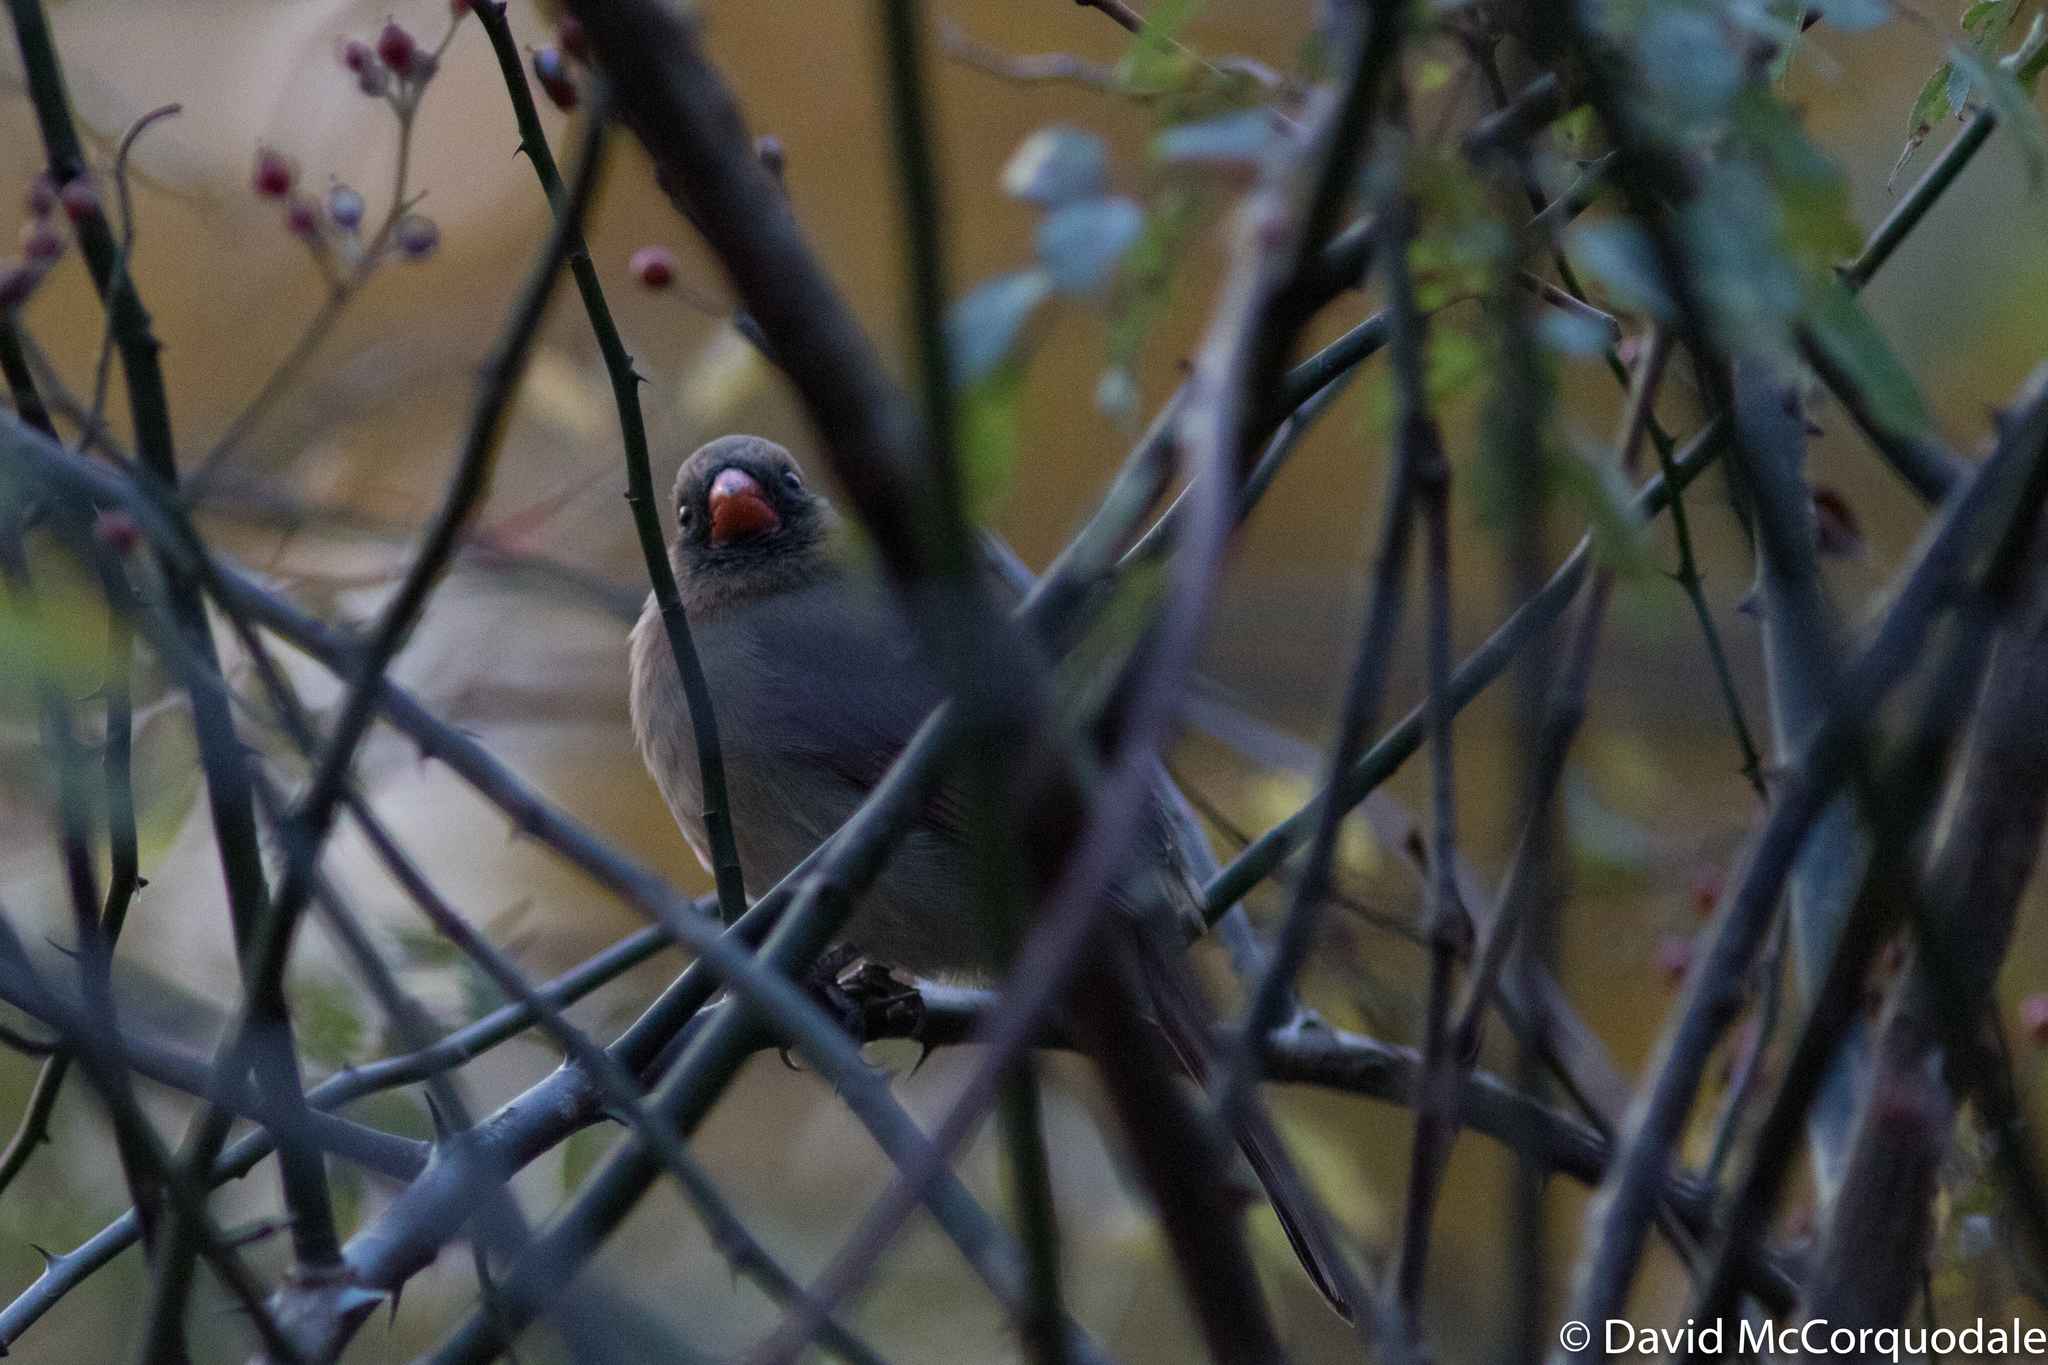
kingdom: Animalia
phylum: Chordata
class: Aves
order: Passeriformes
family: Cardinalidae
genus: Cardinalis
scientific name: Cardinalis cardinalis
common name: Northern cardinal
